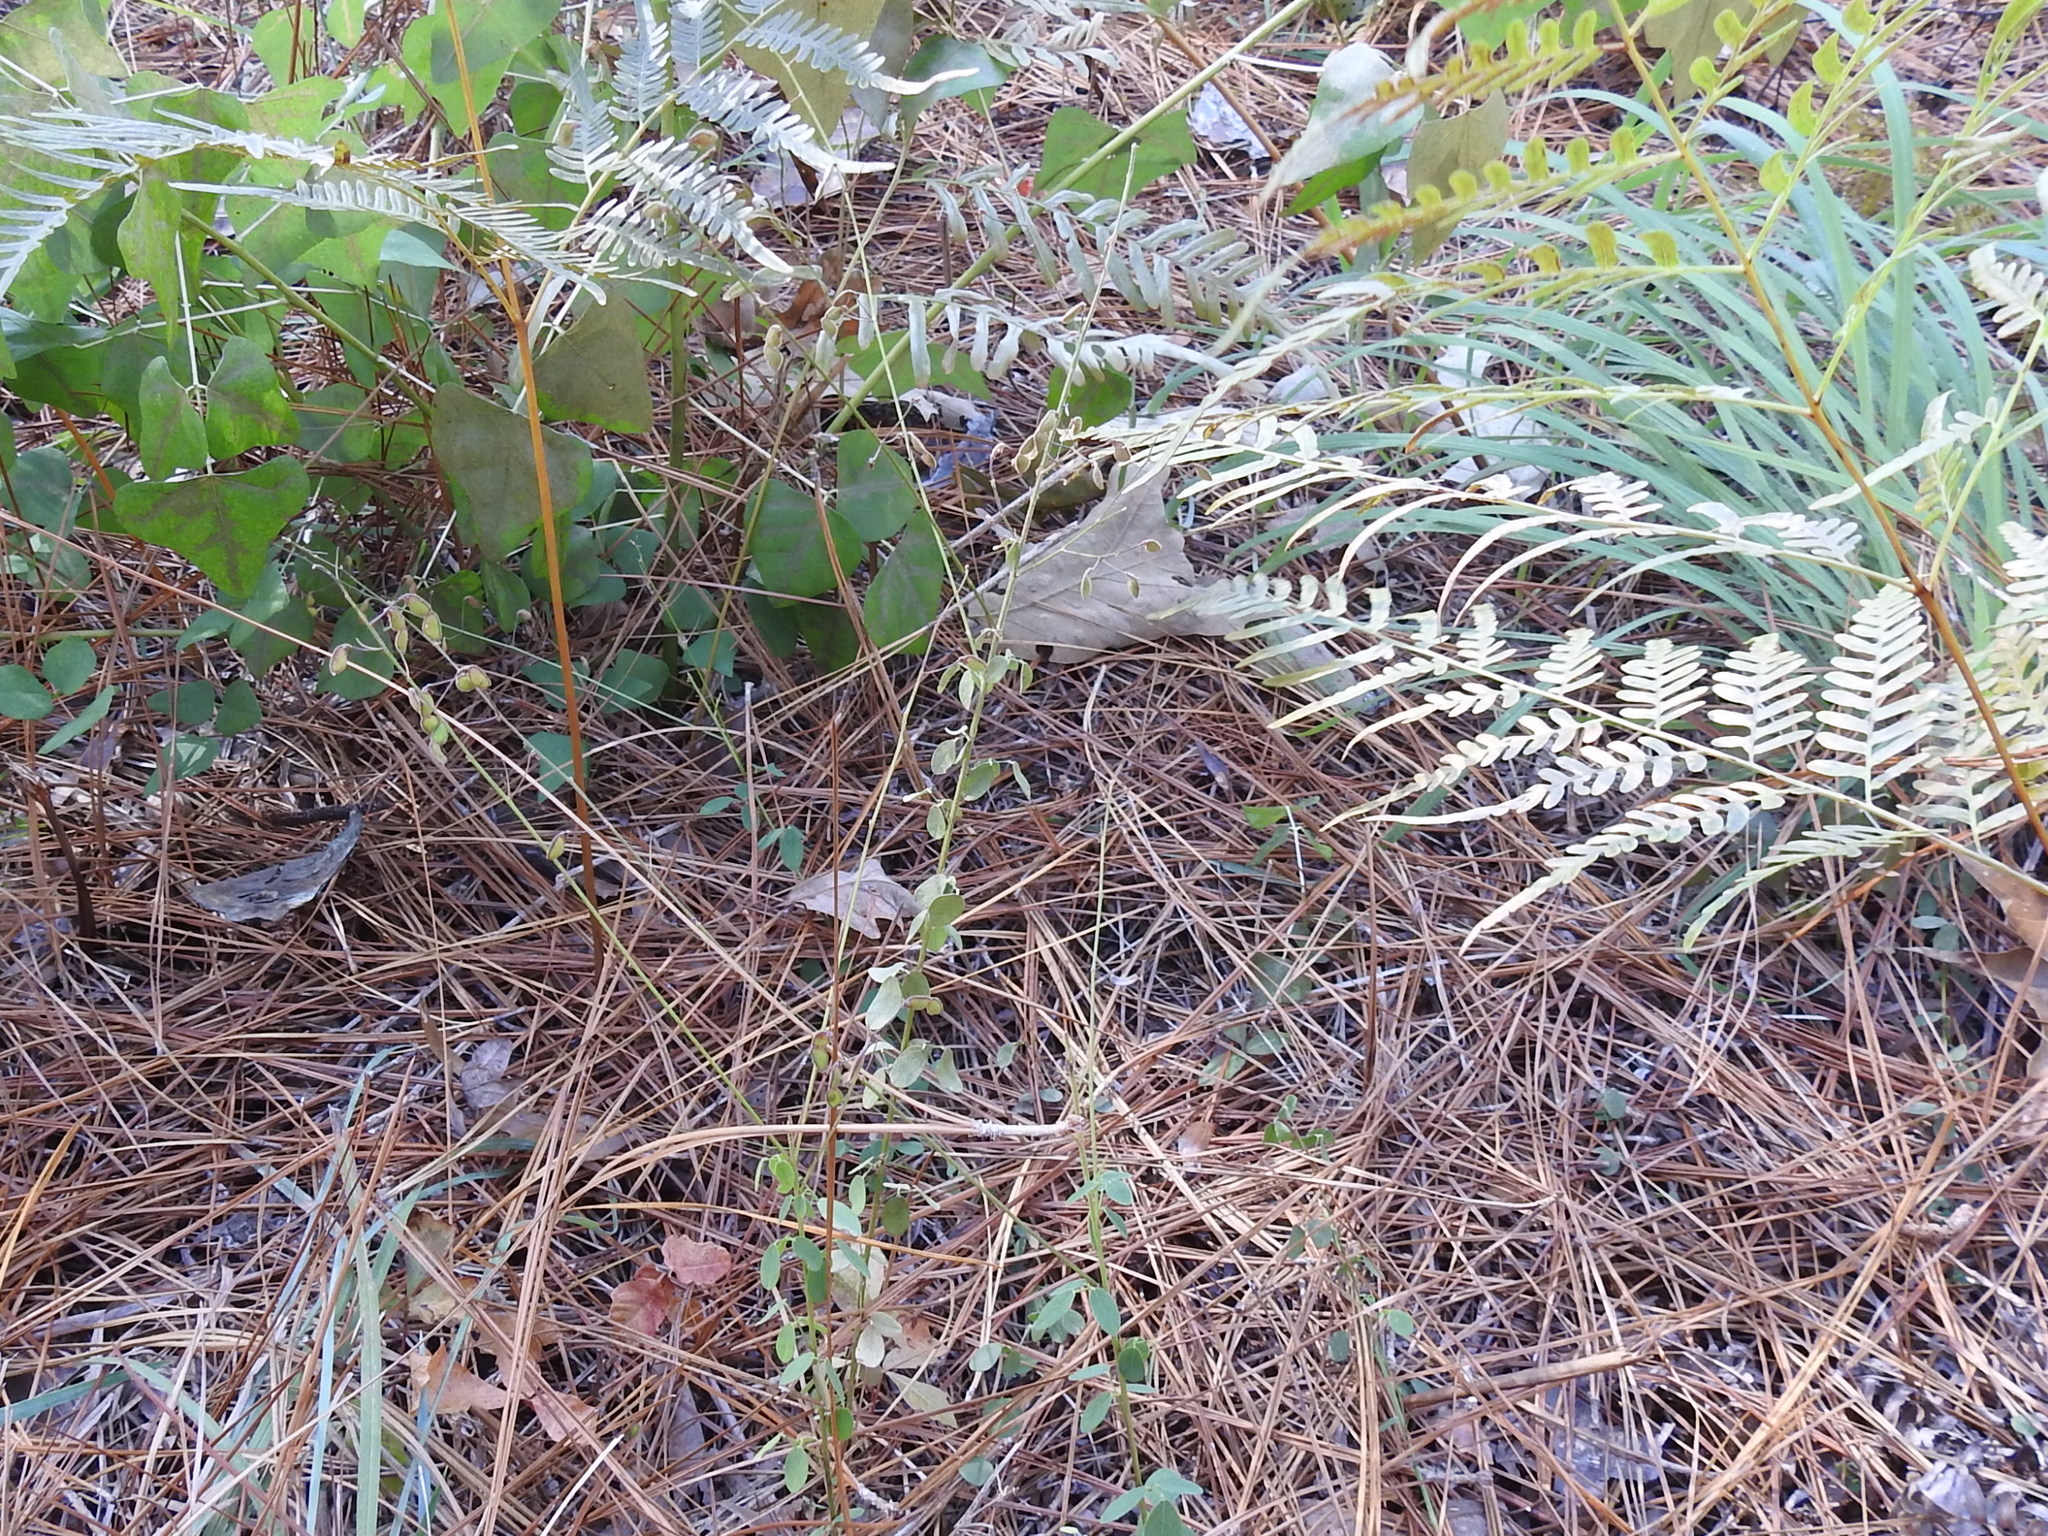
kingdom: Plantae
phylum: Tracheophyta
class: Magnoliopsida
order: Fabales
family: Fabaceae
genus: Desmodium
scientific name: Desmodium ciliare
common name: Hairy small-leaf ticktrefoil
